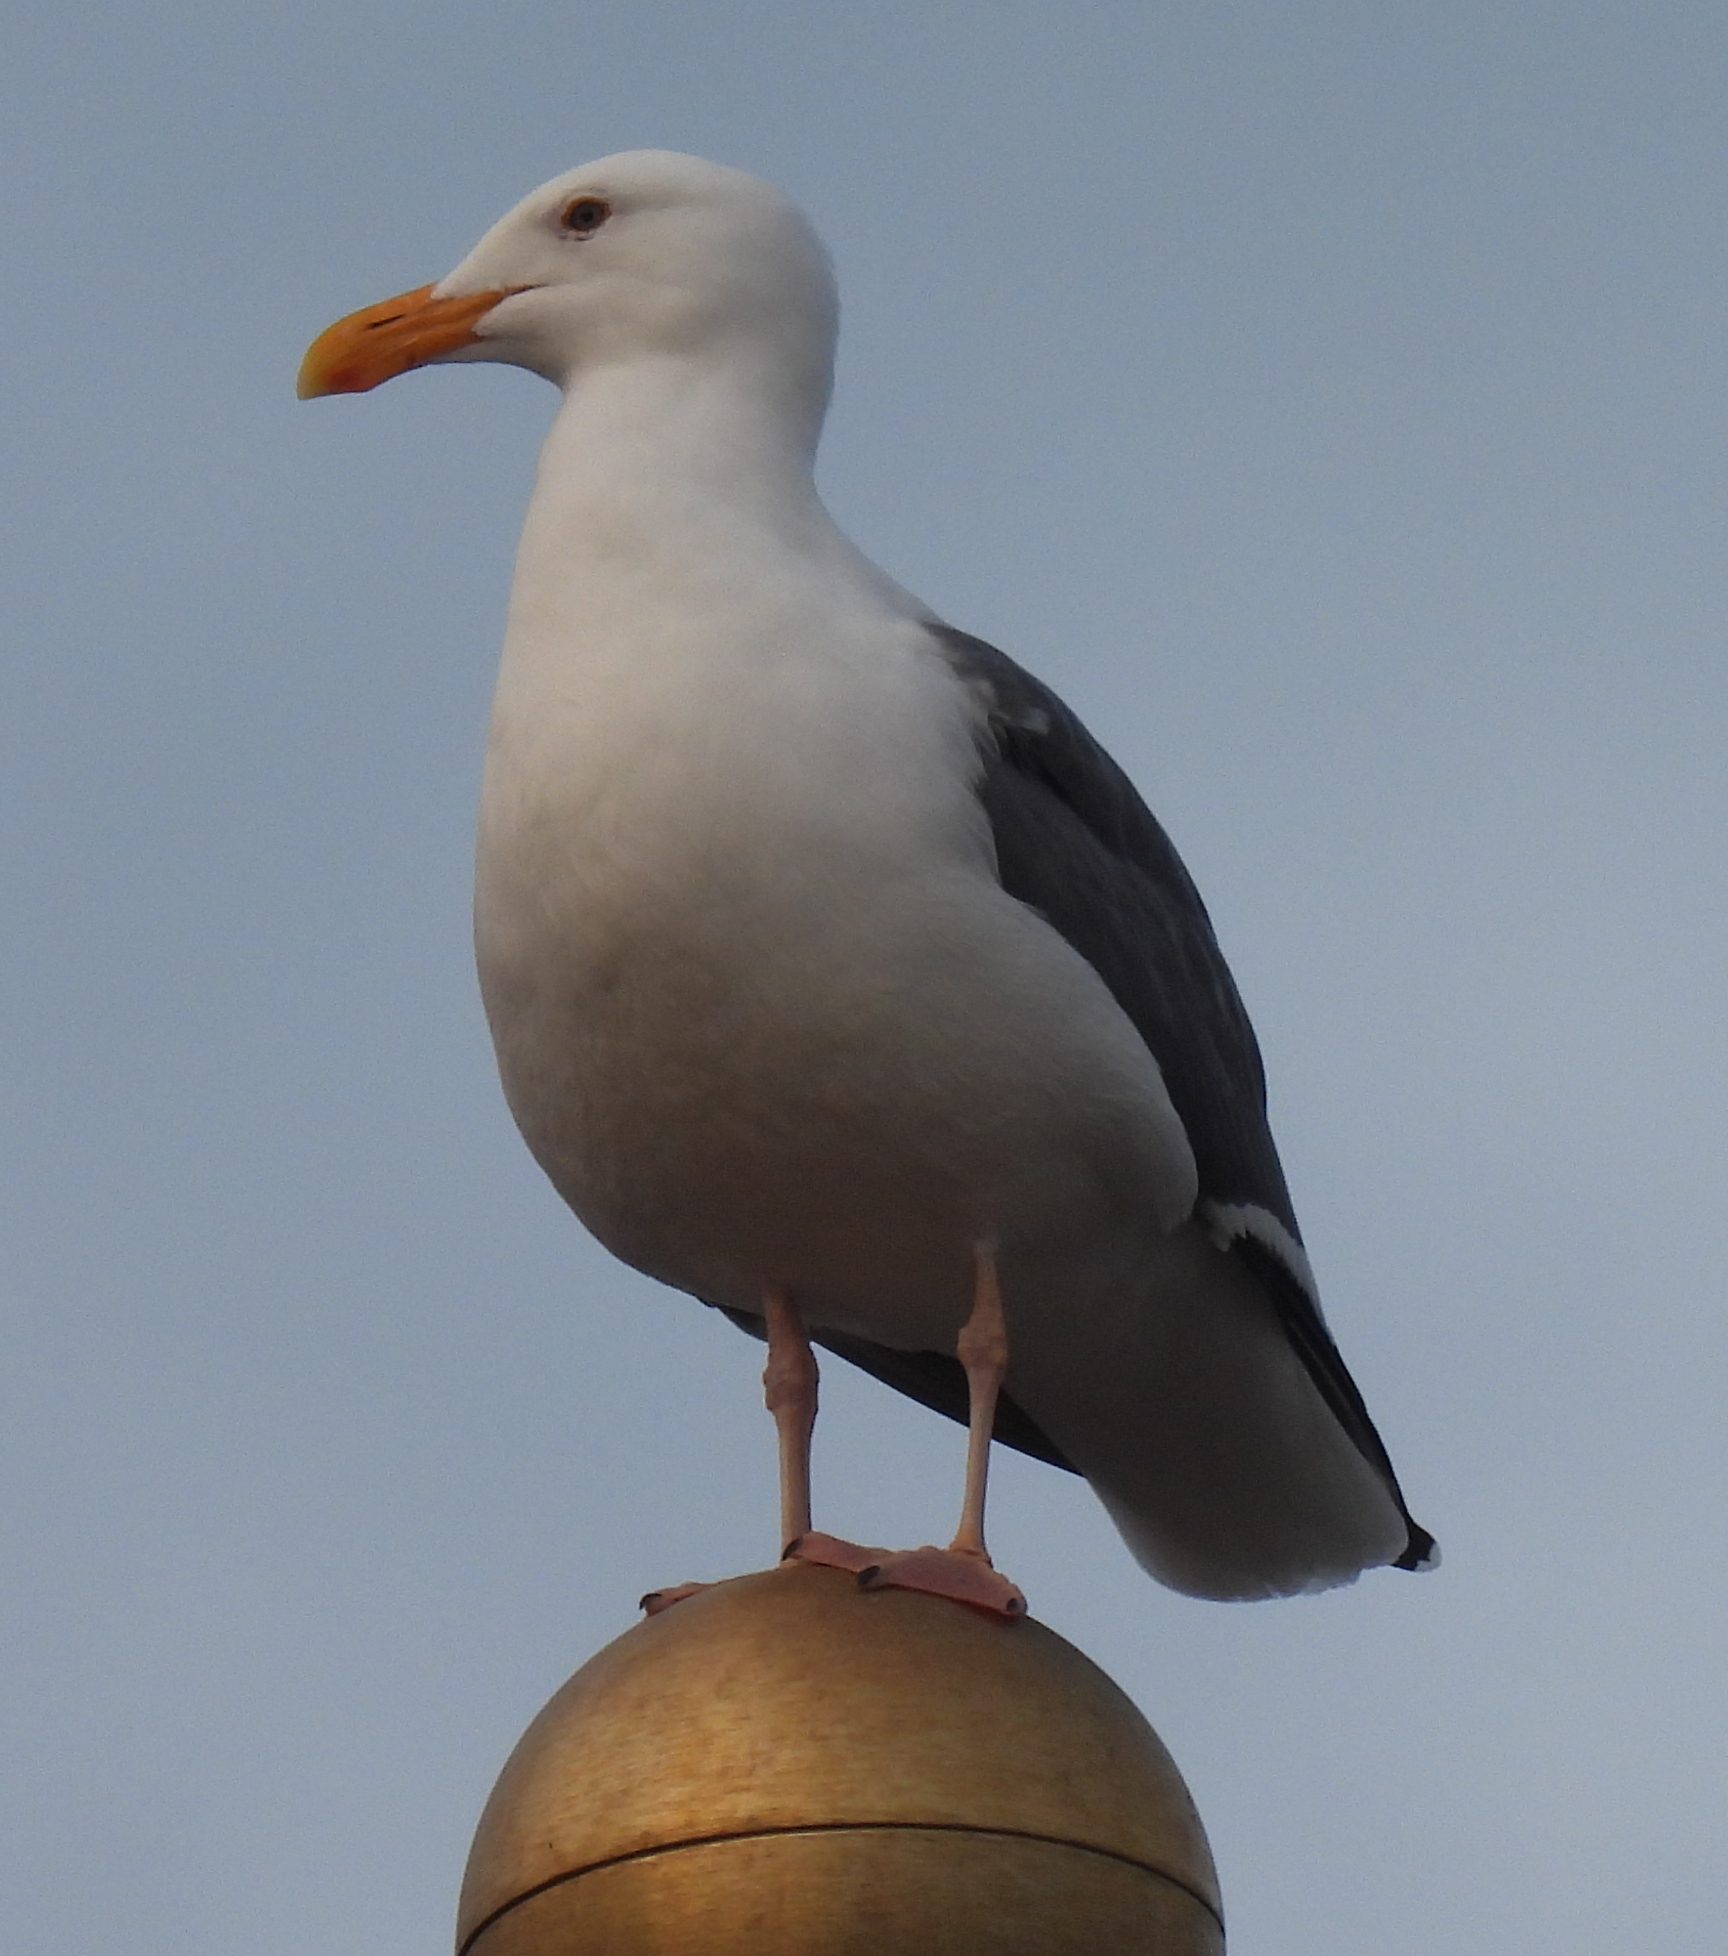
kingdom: Animalia
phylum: Chordata
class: Aves
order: Charadriiformes
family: Laridae
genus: Larus
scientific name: Larus occidentalis
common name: Western gull
